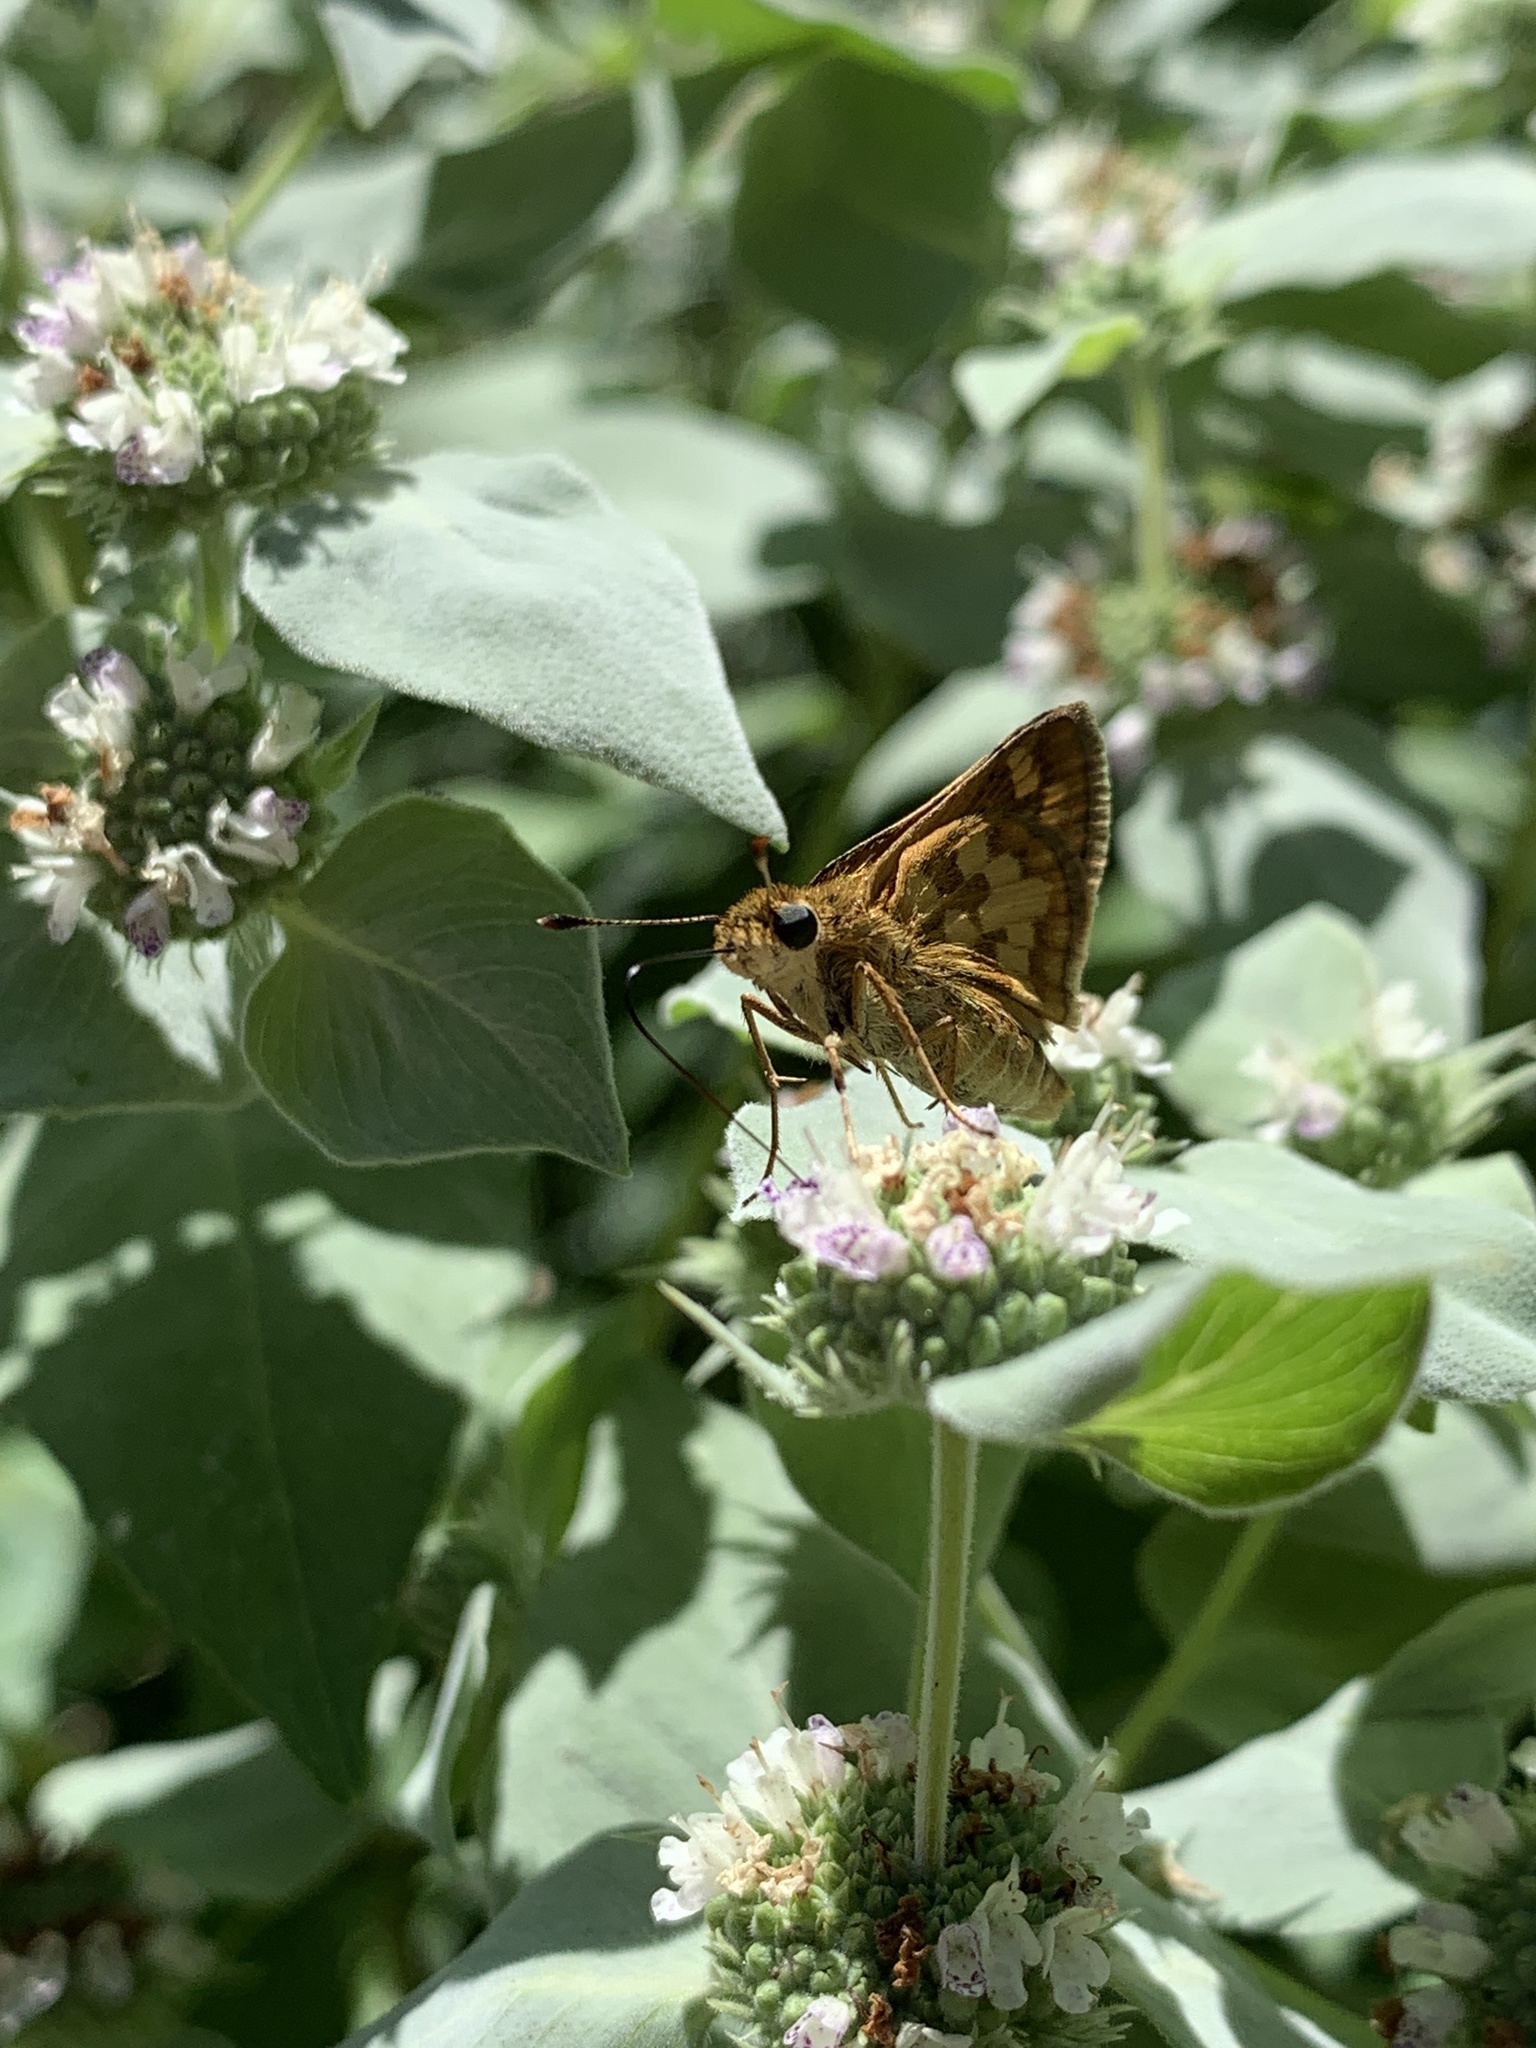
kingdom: Animalia
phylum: Arthropoda
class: Insecta
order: Lepidoptera
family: Hesperiidae
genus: Polites
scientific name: Polites coras
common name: Peck's skipper
